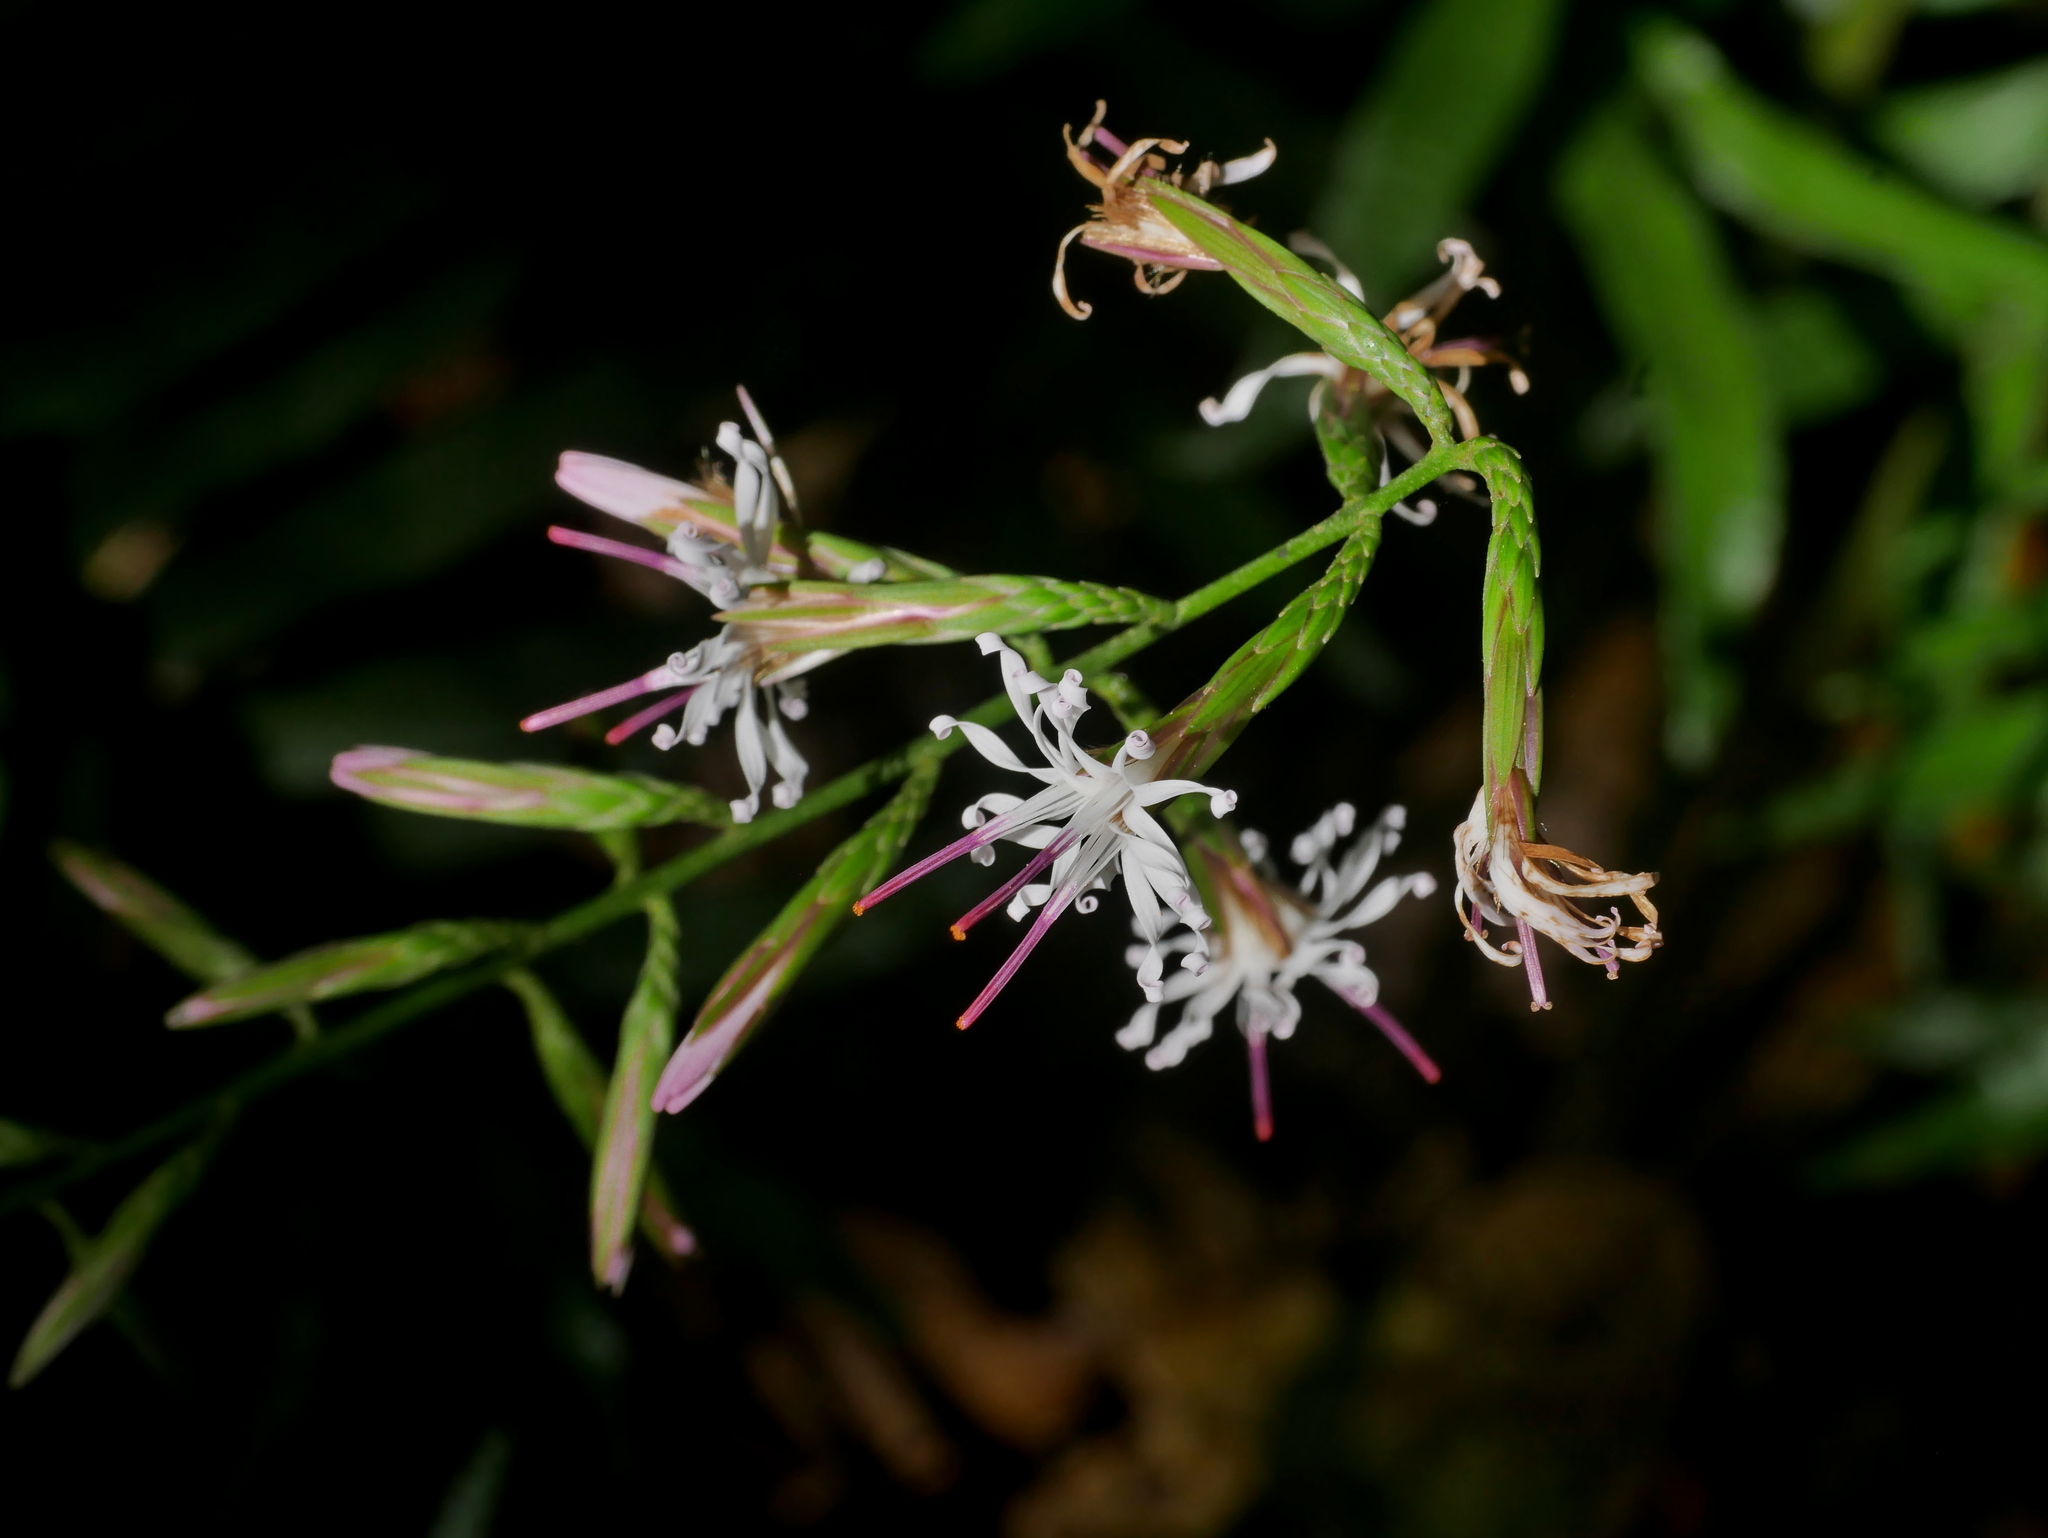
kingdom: Plantae
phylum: Tracheophyta
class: Magnoliopsida
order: Asterales
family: Asteraceae
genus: Ainsliaea
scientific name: Ainsliaea kawakamii
